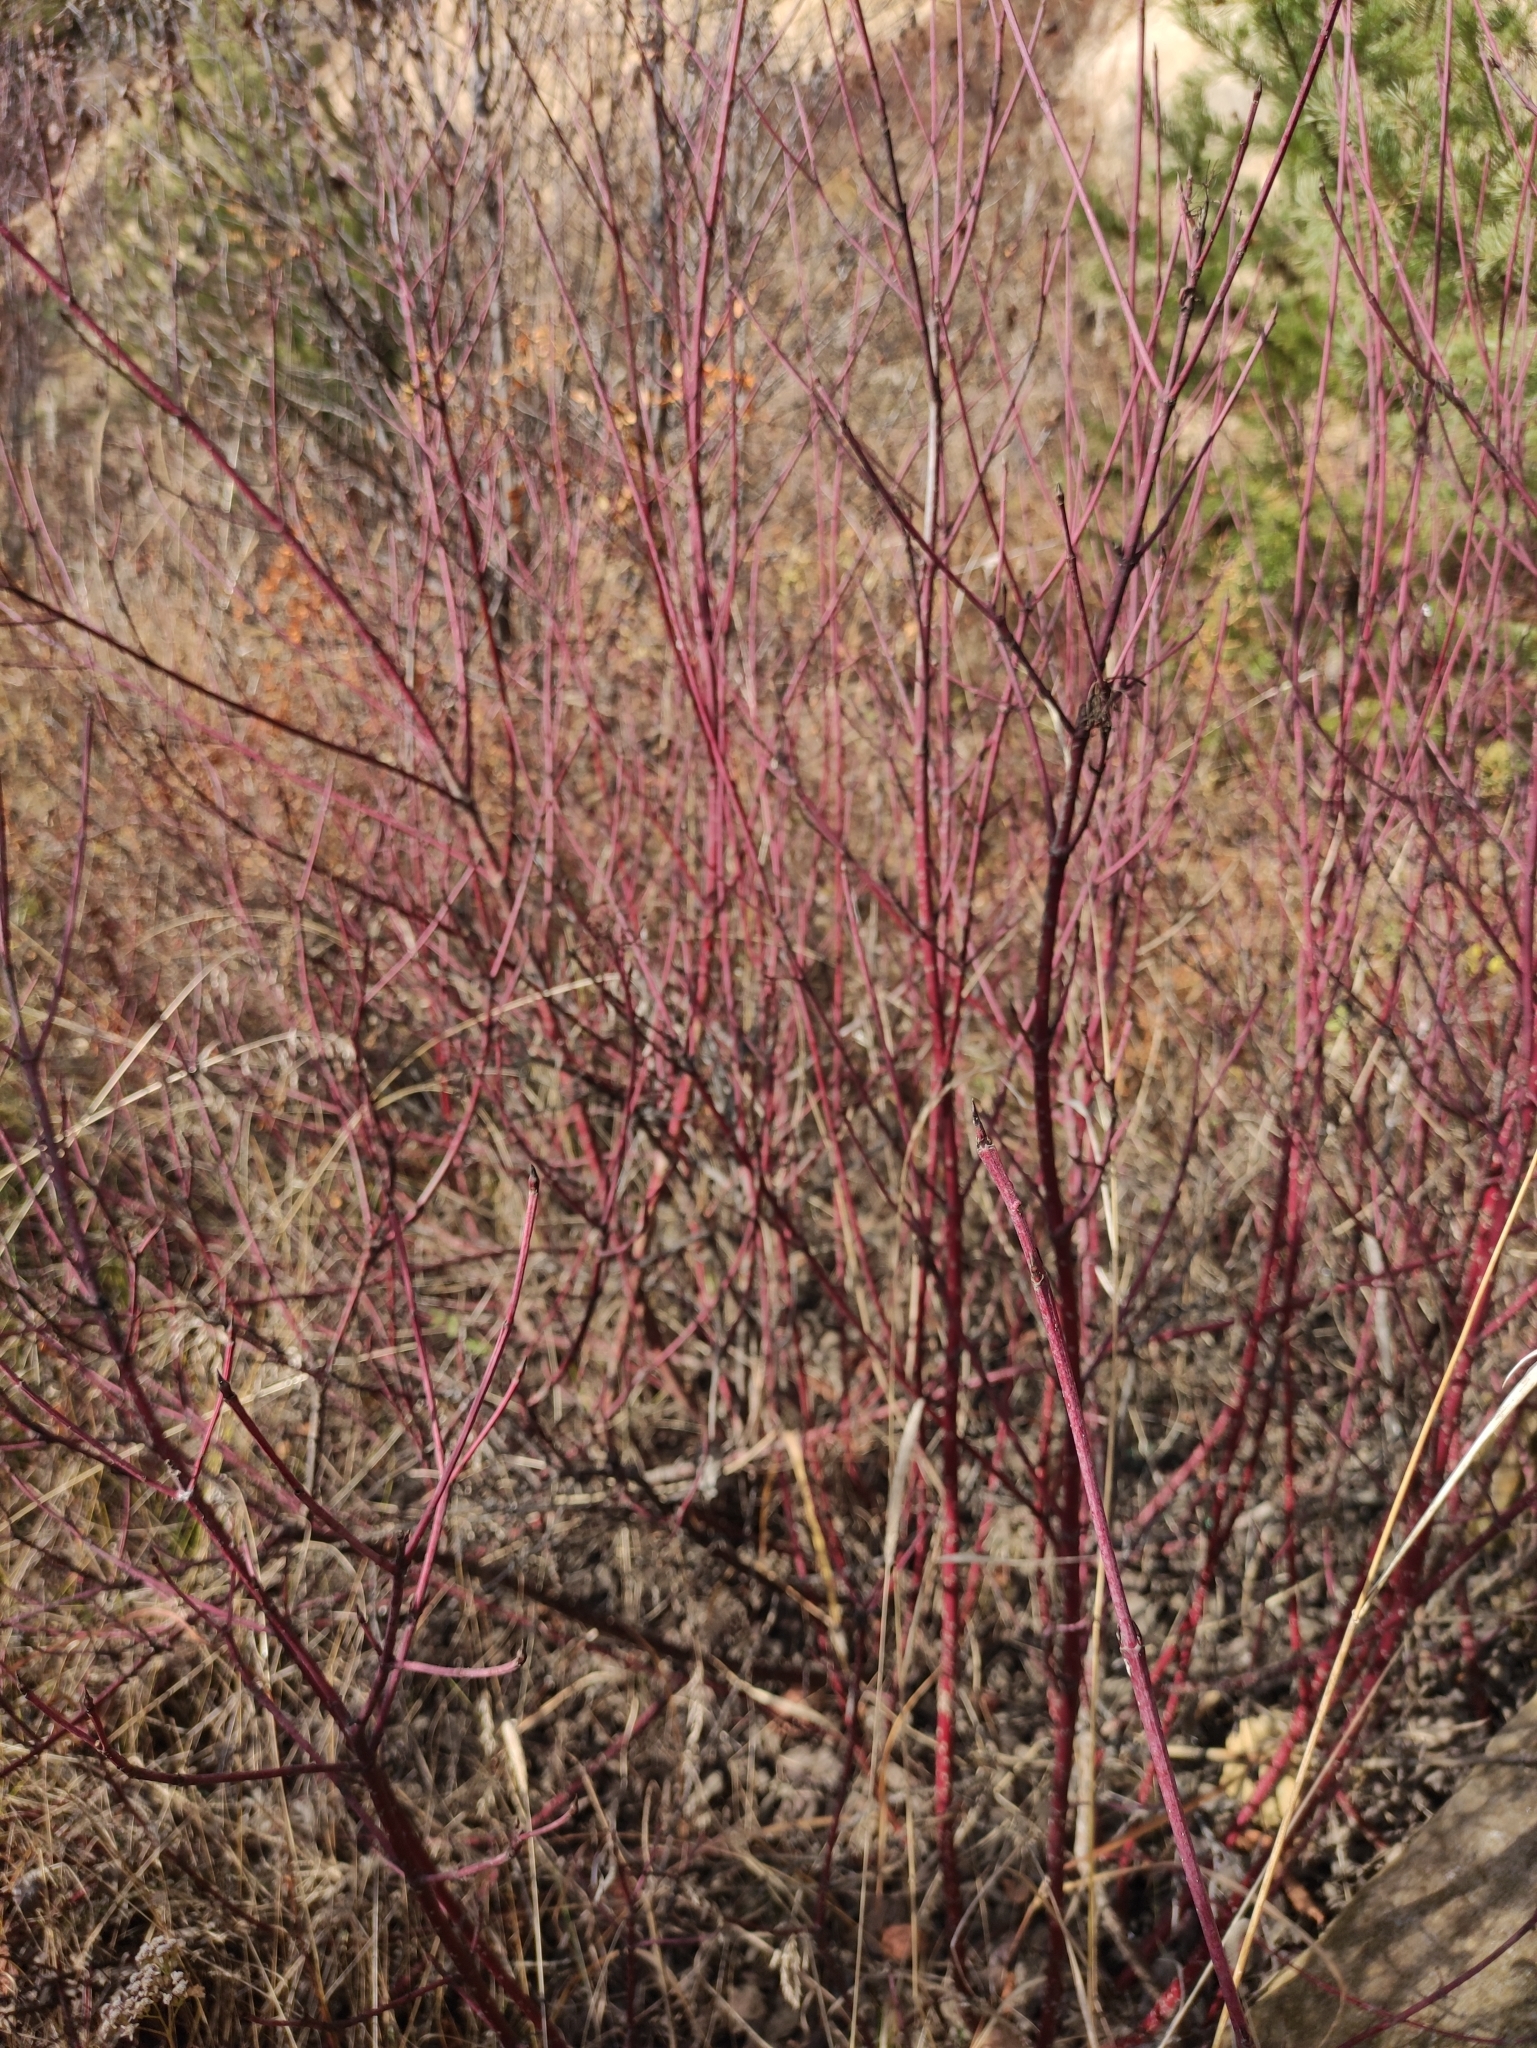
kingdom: Plantae
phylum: Tracheophyta
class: Magnoliopsida
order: Cornales
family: Cornaceae
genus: Cornus
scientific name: Cornus alba
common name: White dogwood
